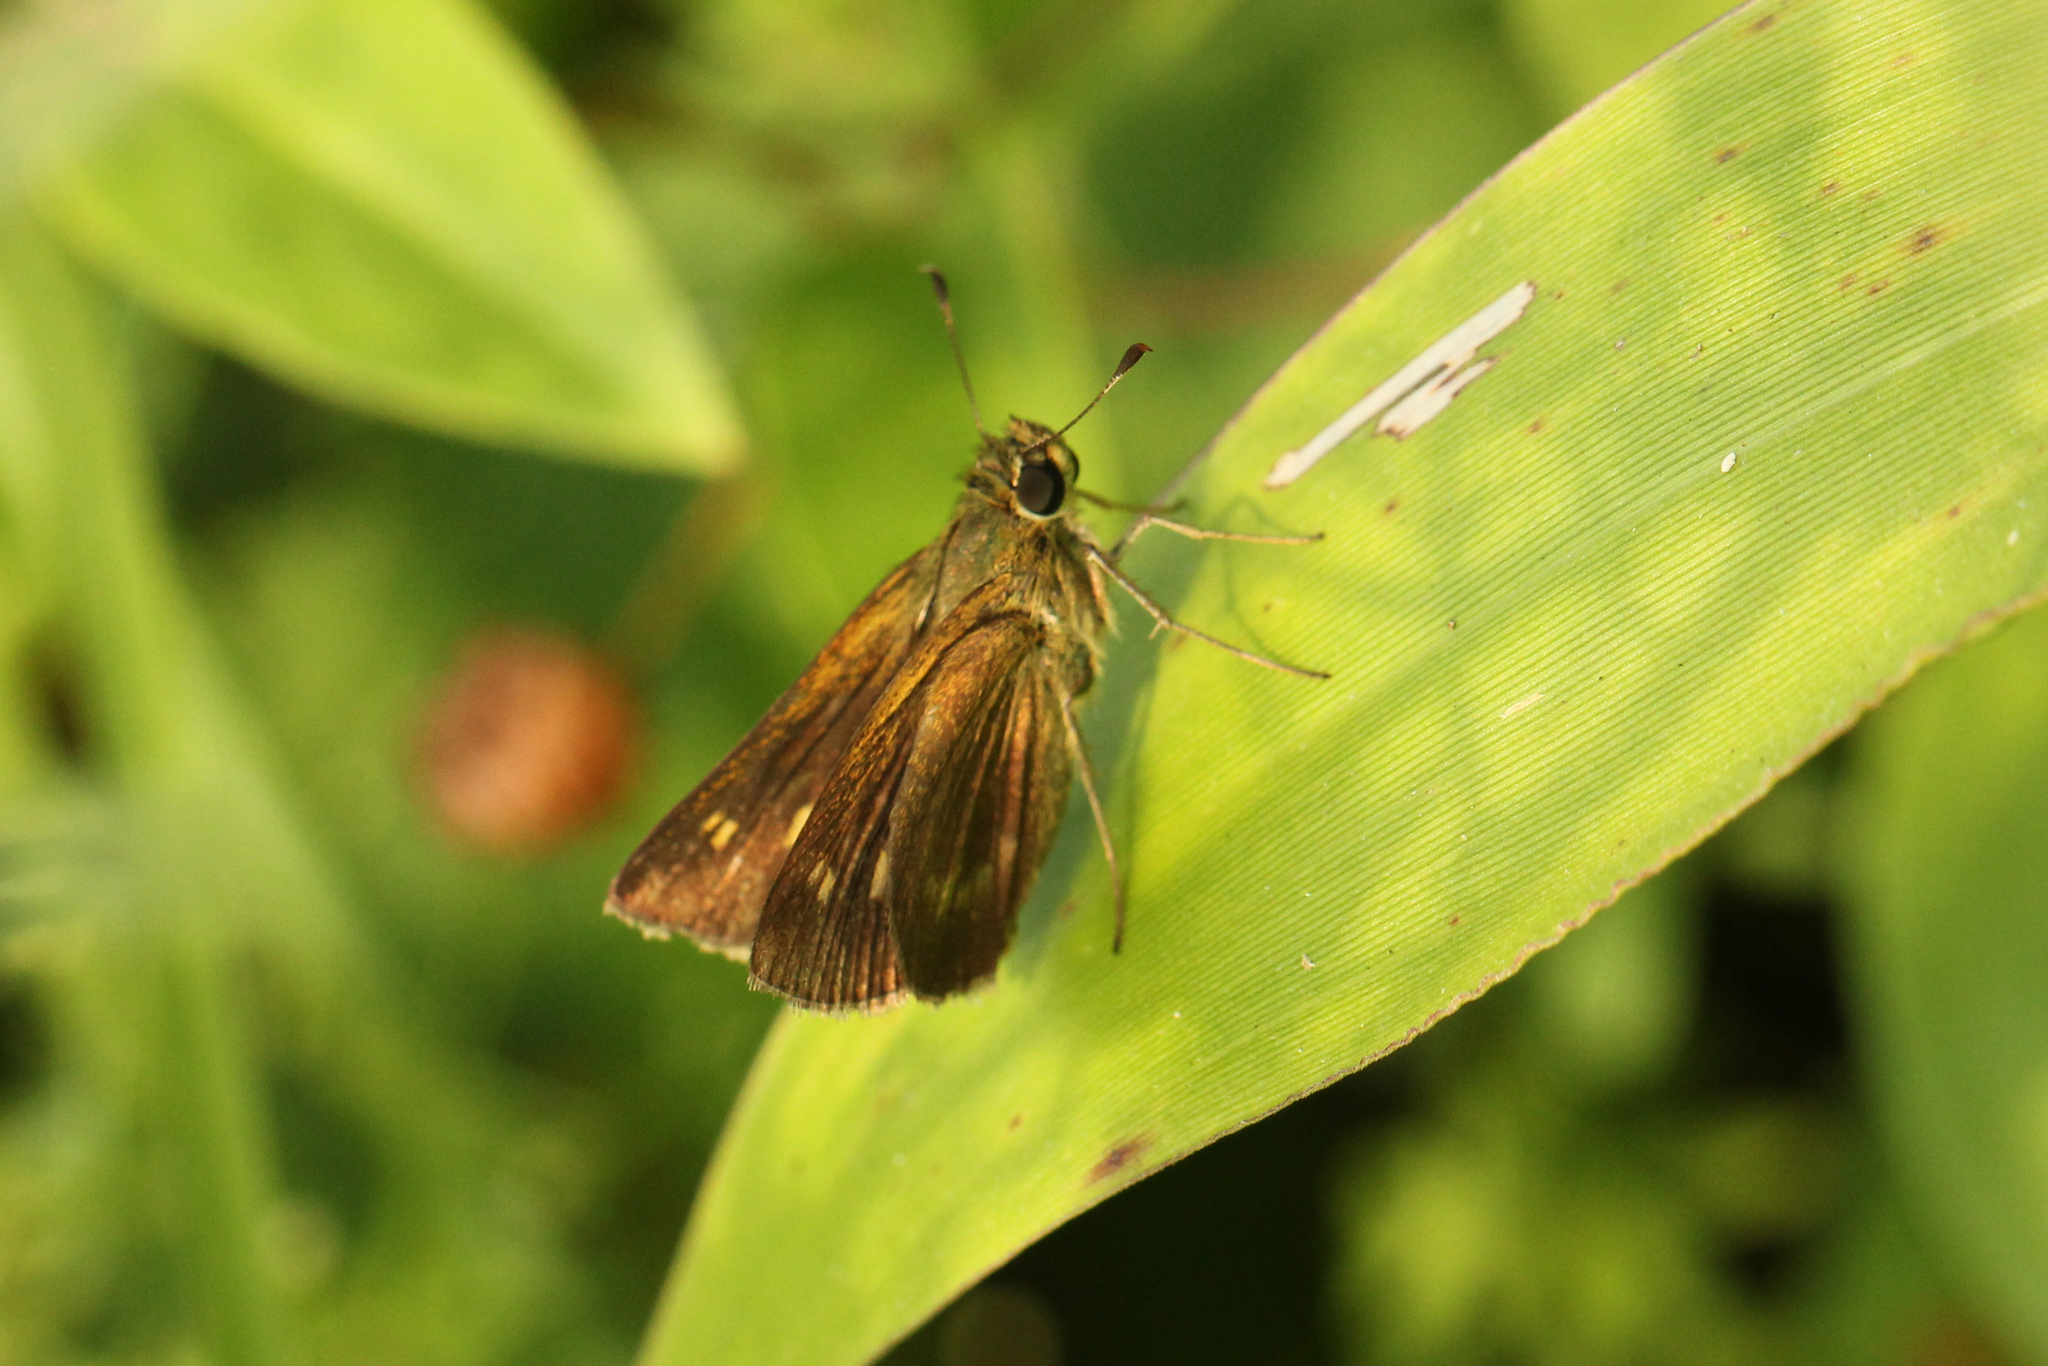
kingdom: Animalia
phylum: Arthropoda
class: Insecta
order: Lepidoptera
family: Hesperiidae
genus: Polites
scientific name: Polites egeremet
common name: Northern broken-dash
